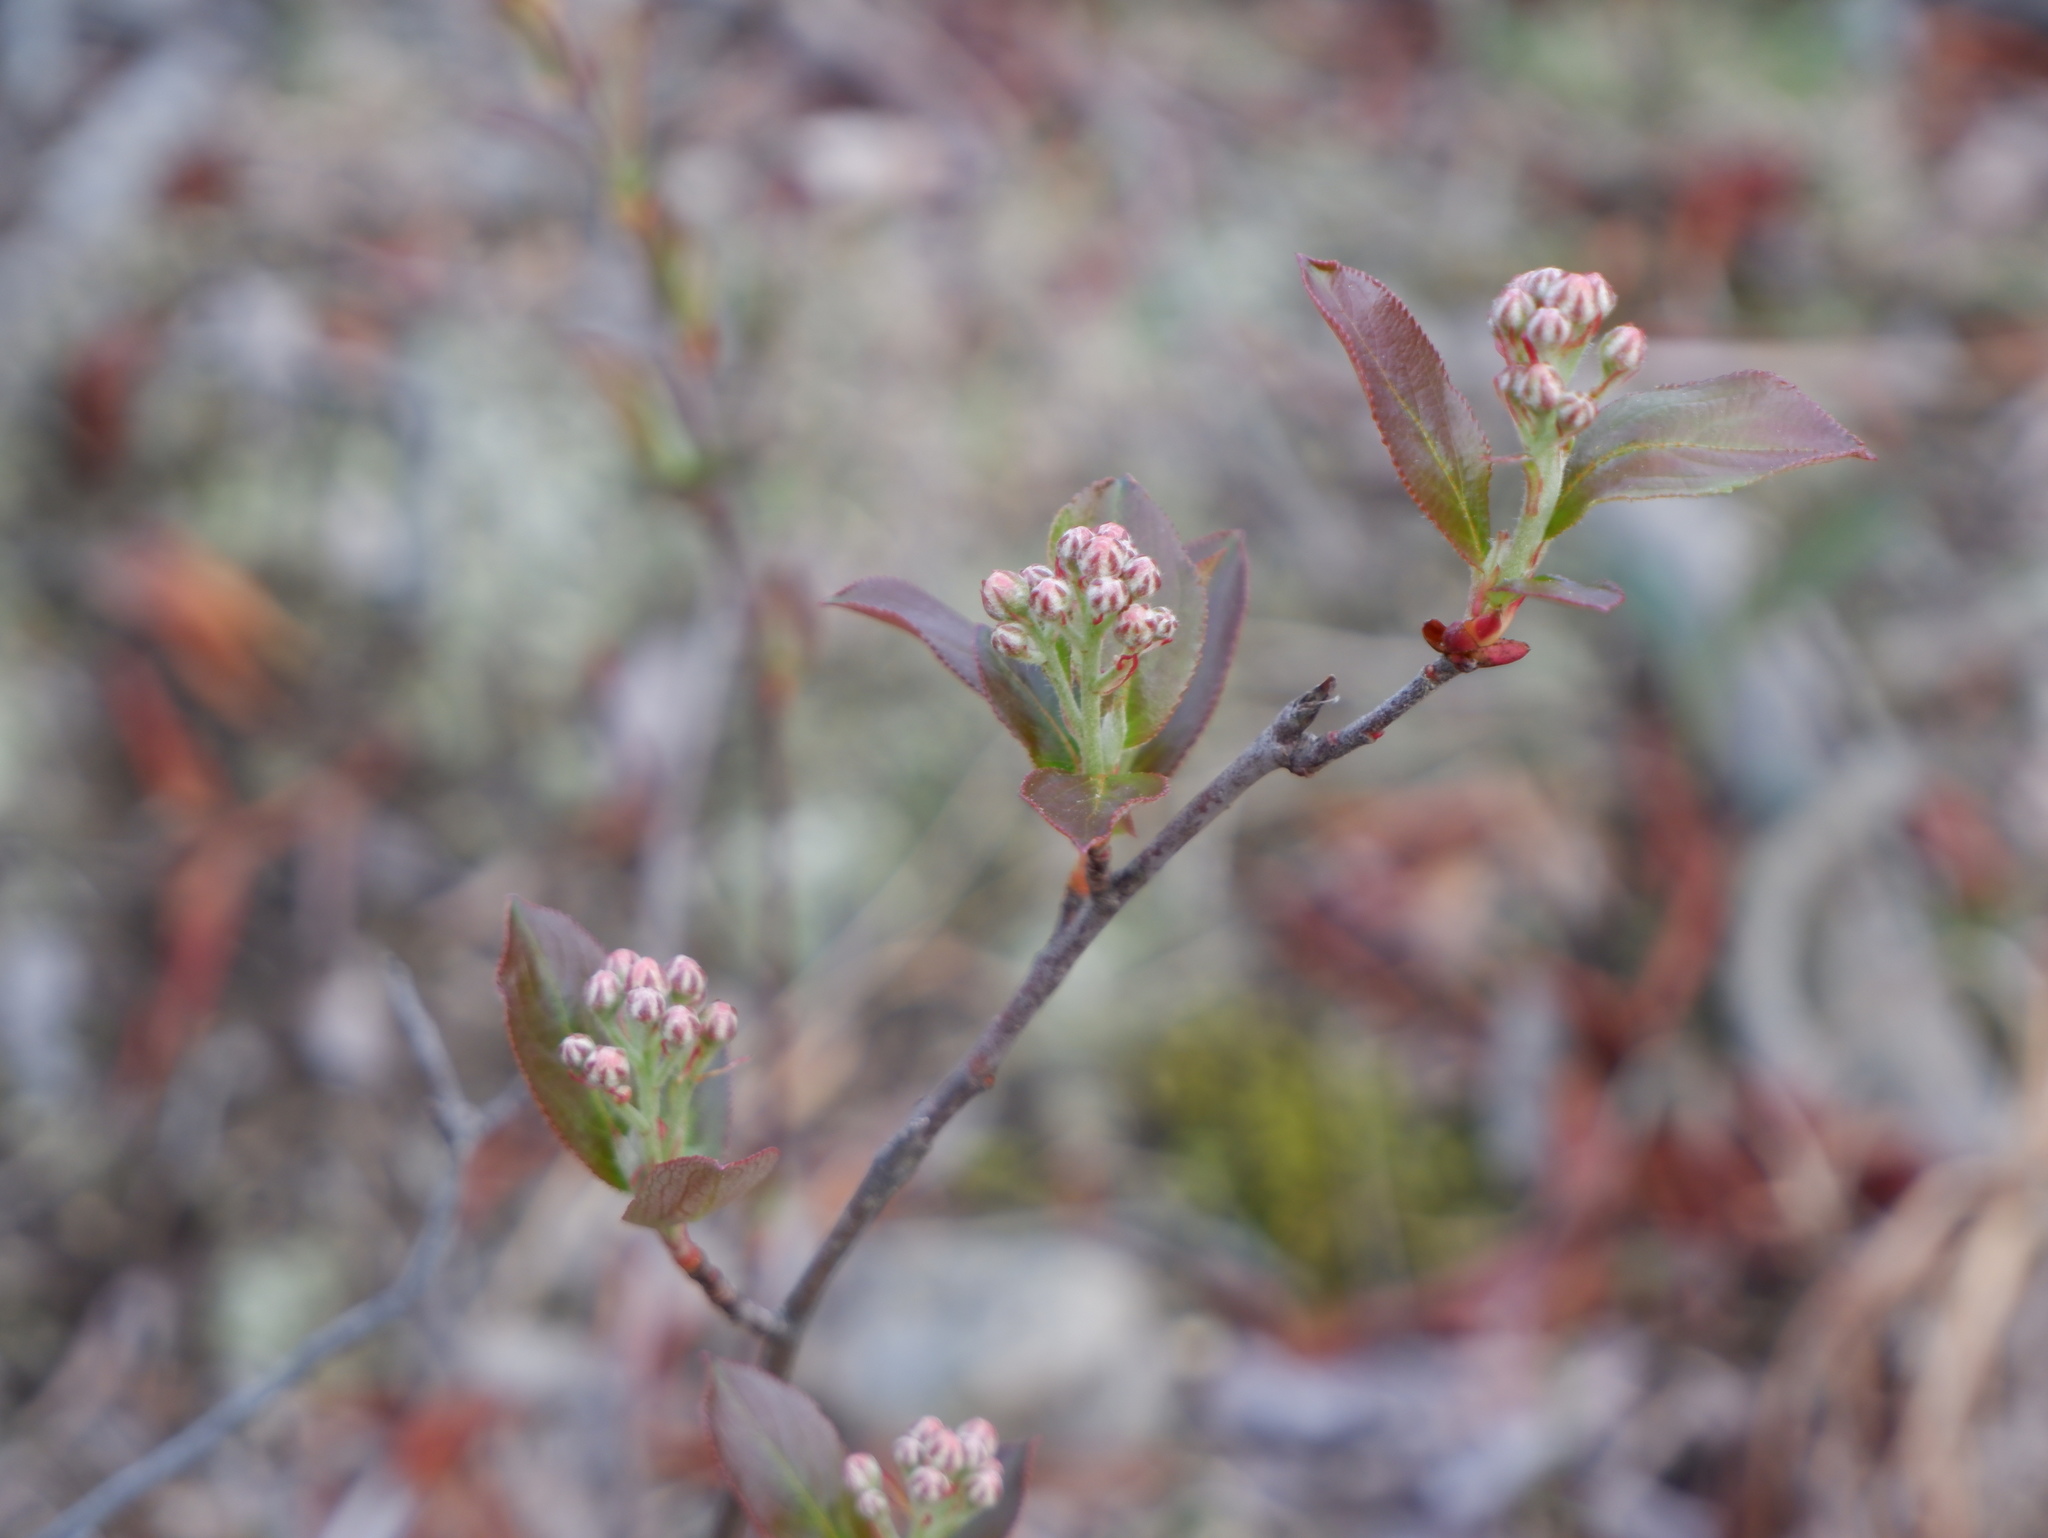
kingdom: Plantae
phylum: Tracheophyta
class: Magnoliopsida
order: Rosales
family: Rosaceae
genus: Aronia
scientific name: Aronia arbutifolia
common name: Red chokeberry
